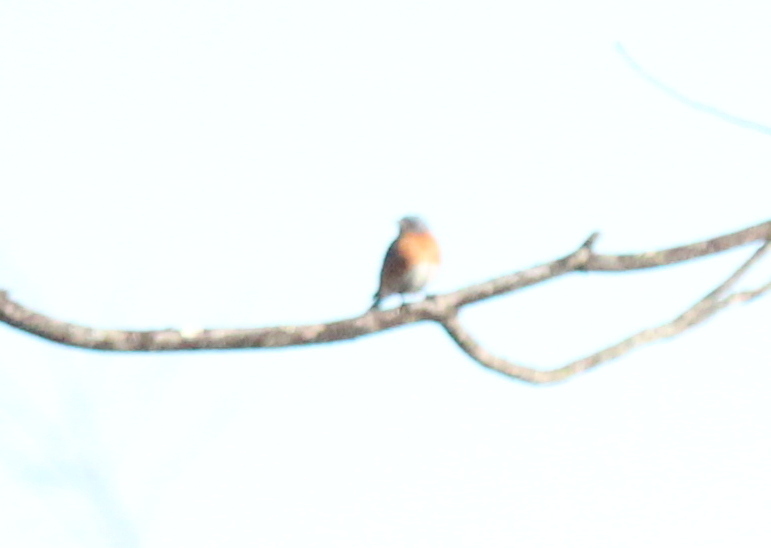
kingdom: Animalia
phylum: Chordata
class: Aves
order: Passeriformes
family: Turdidae
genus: Sialia
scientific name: Sialia sialis
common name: Eastern bluebird
